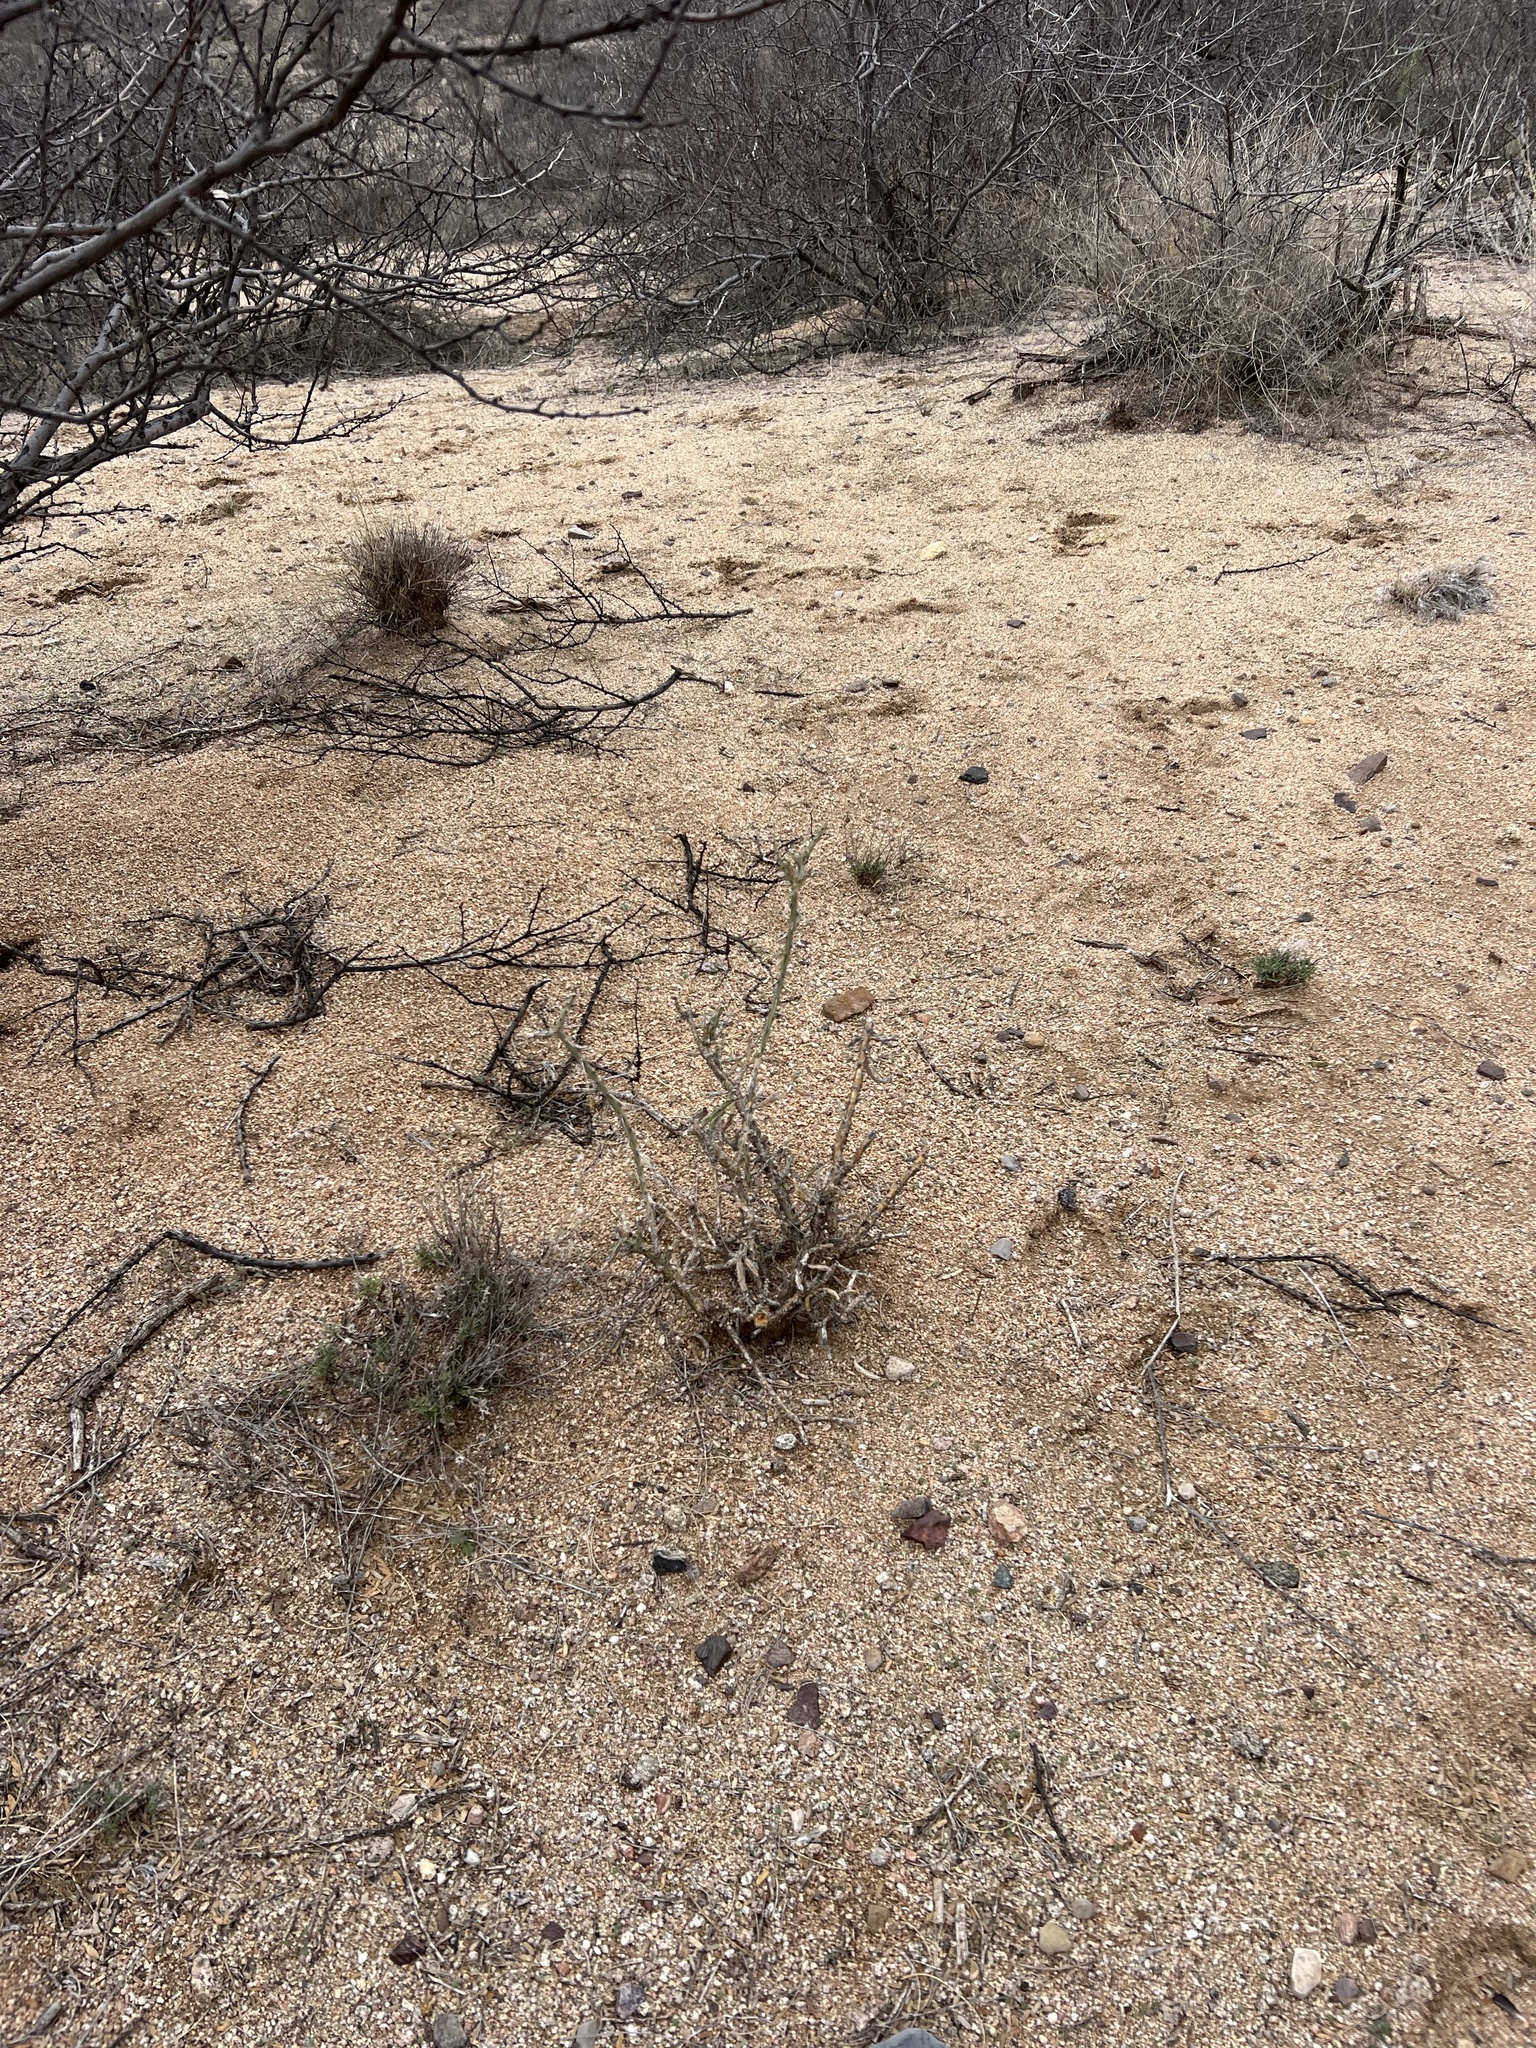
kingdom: Plantae
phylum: Tracheophyta
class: Magnoliopsida
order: Caryophyllales
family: Cactaceae
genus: Cylindropuntia
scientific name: Cylindropuntia leptocaulis
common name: Christmas cactus
